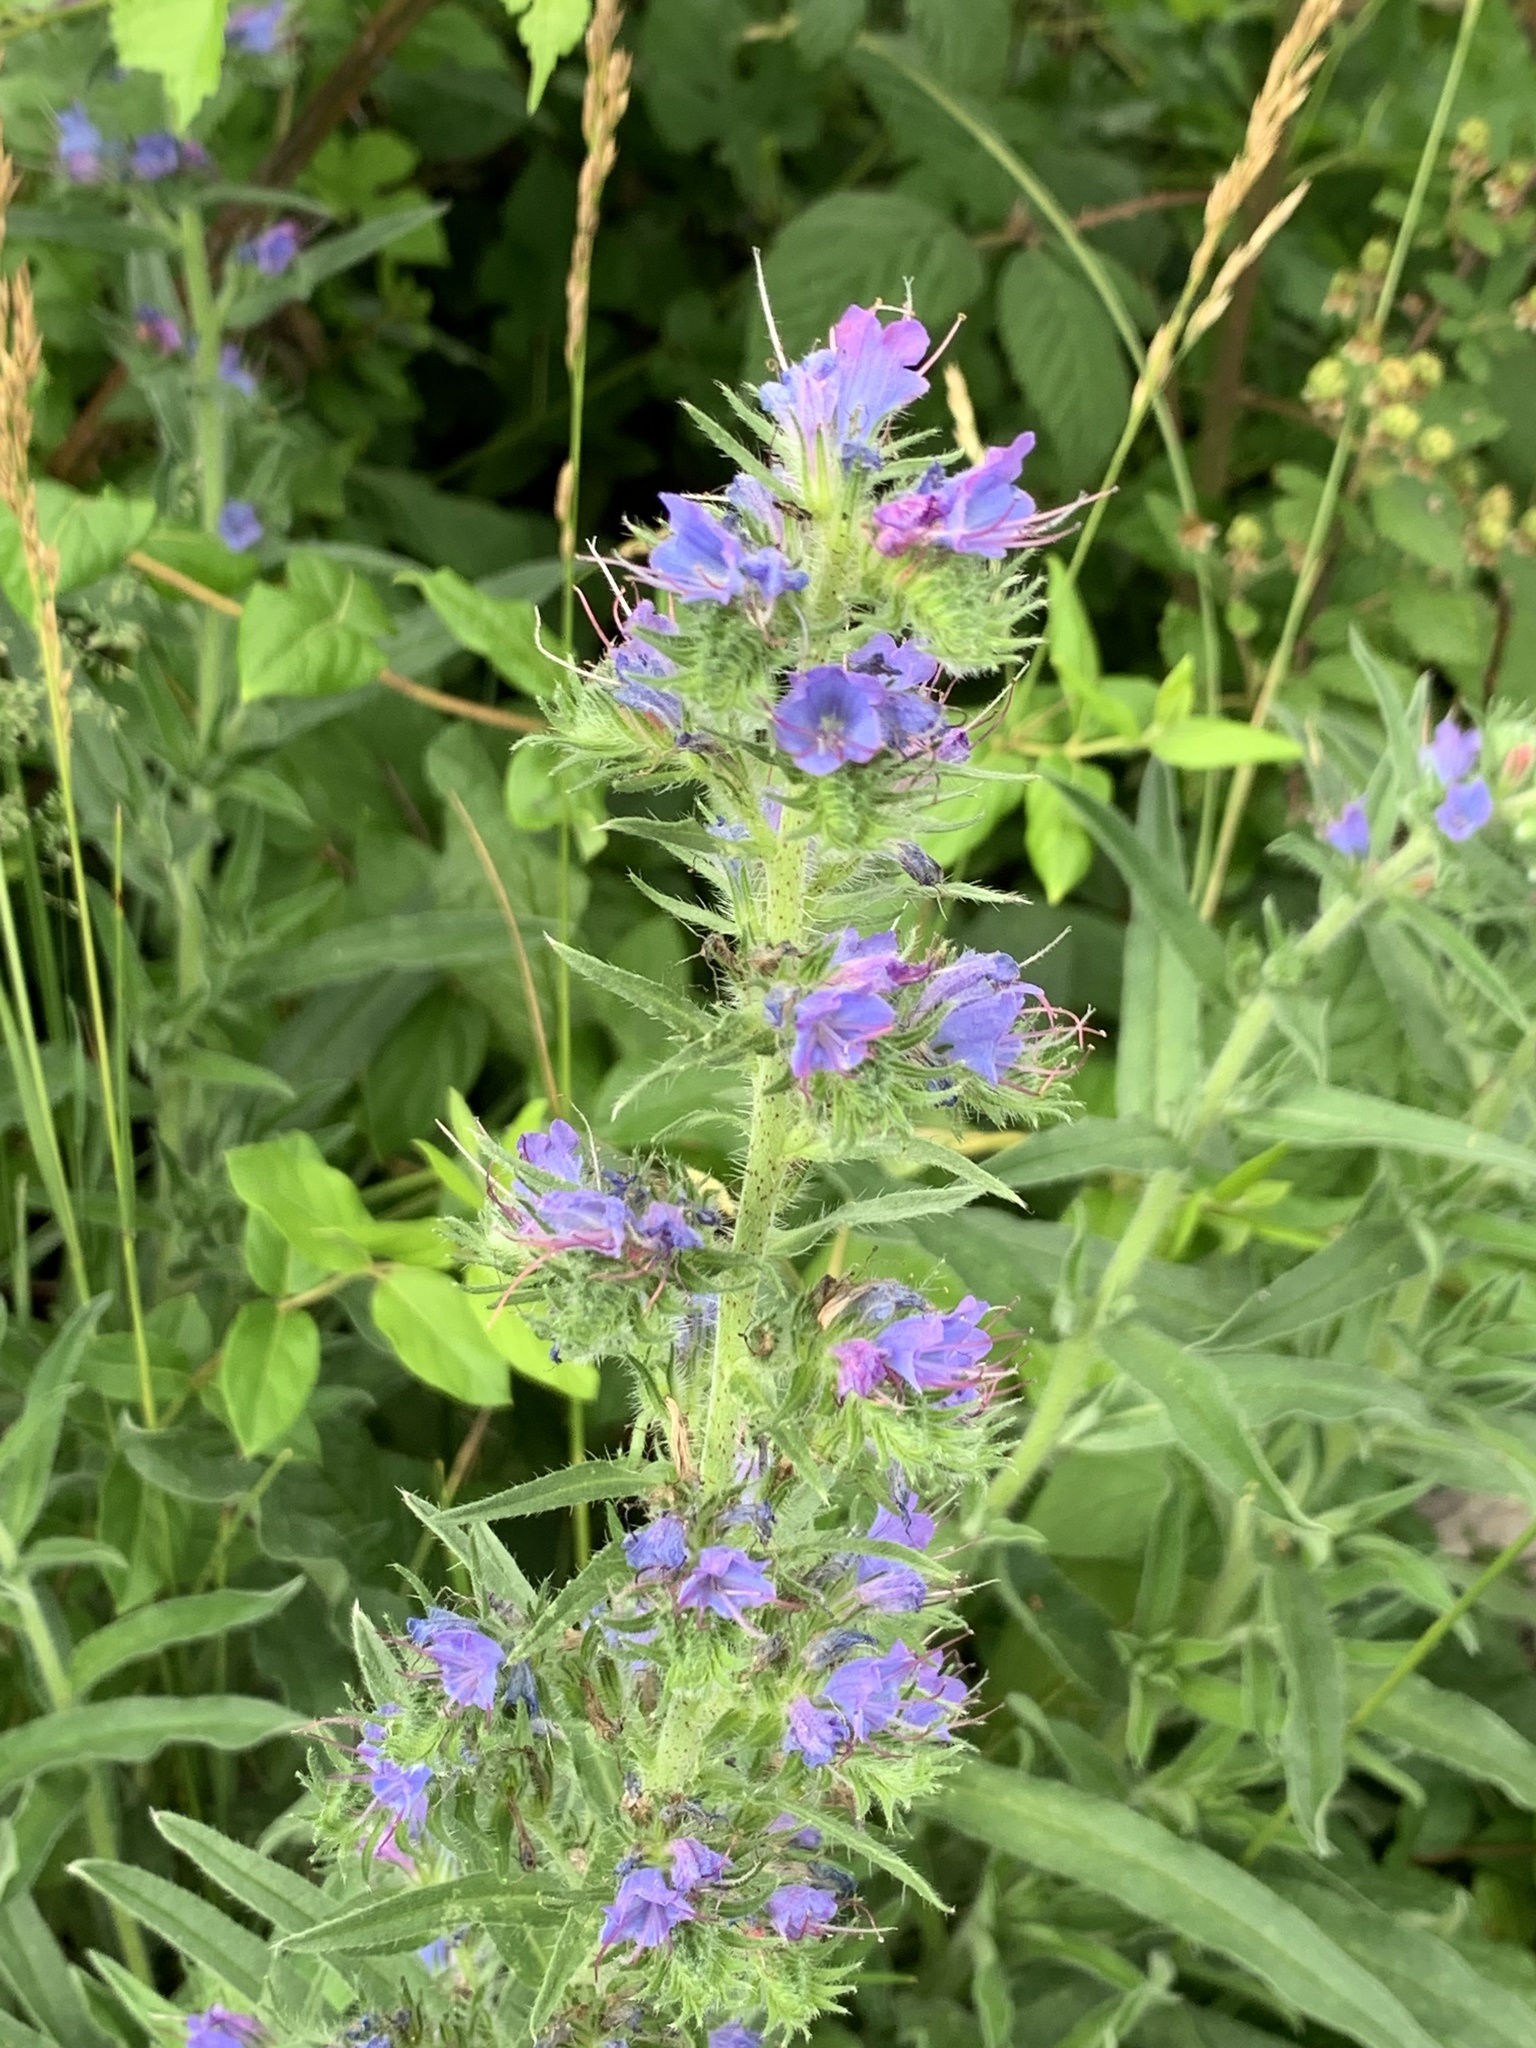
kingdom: Plantae
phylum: Tracheophyta
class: Magnoliopsida
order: Boraginales
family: Boraginaceae
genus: Echium
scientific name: Echium vulgare
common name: Common viper's bugloss
